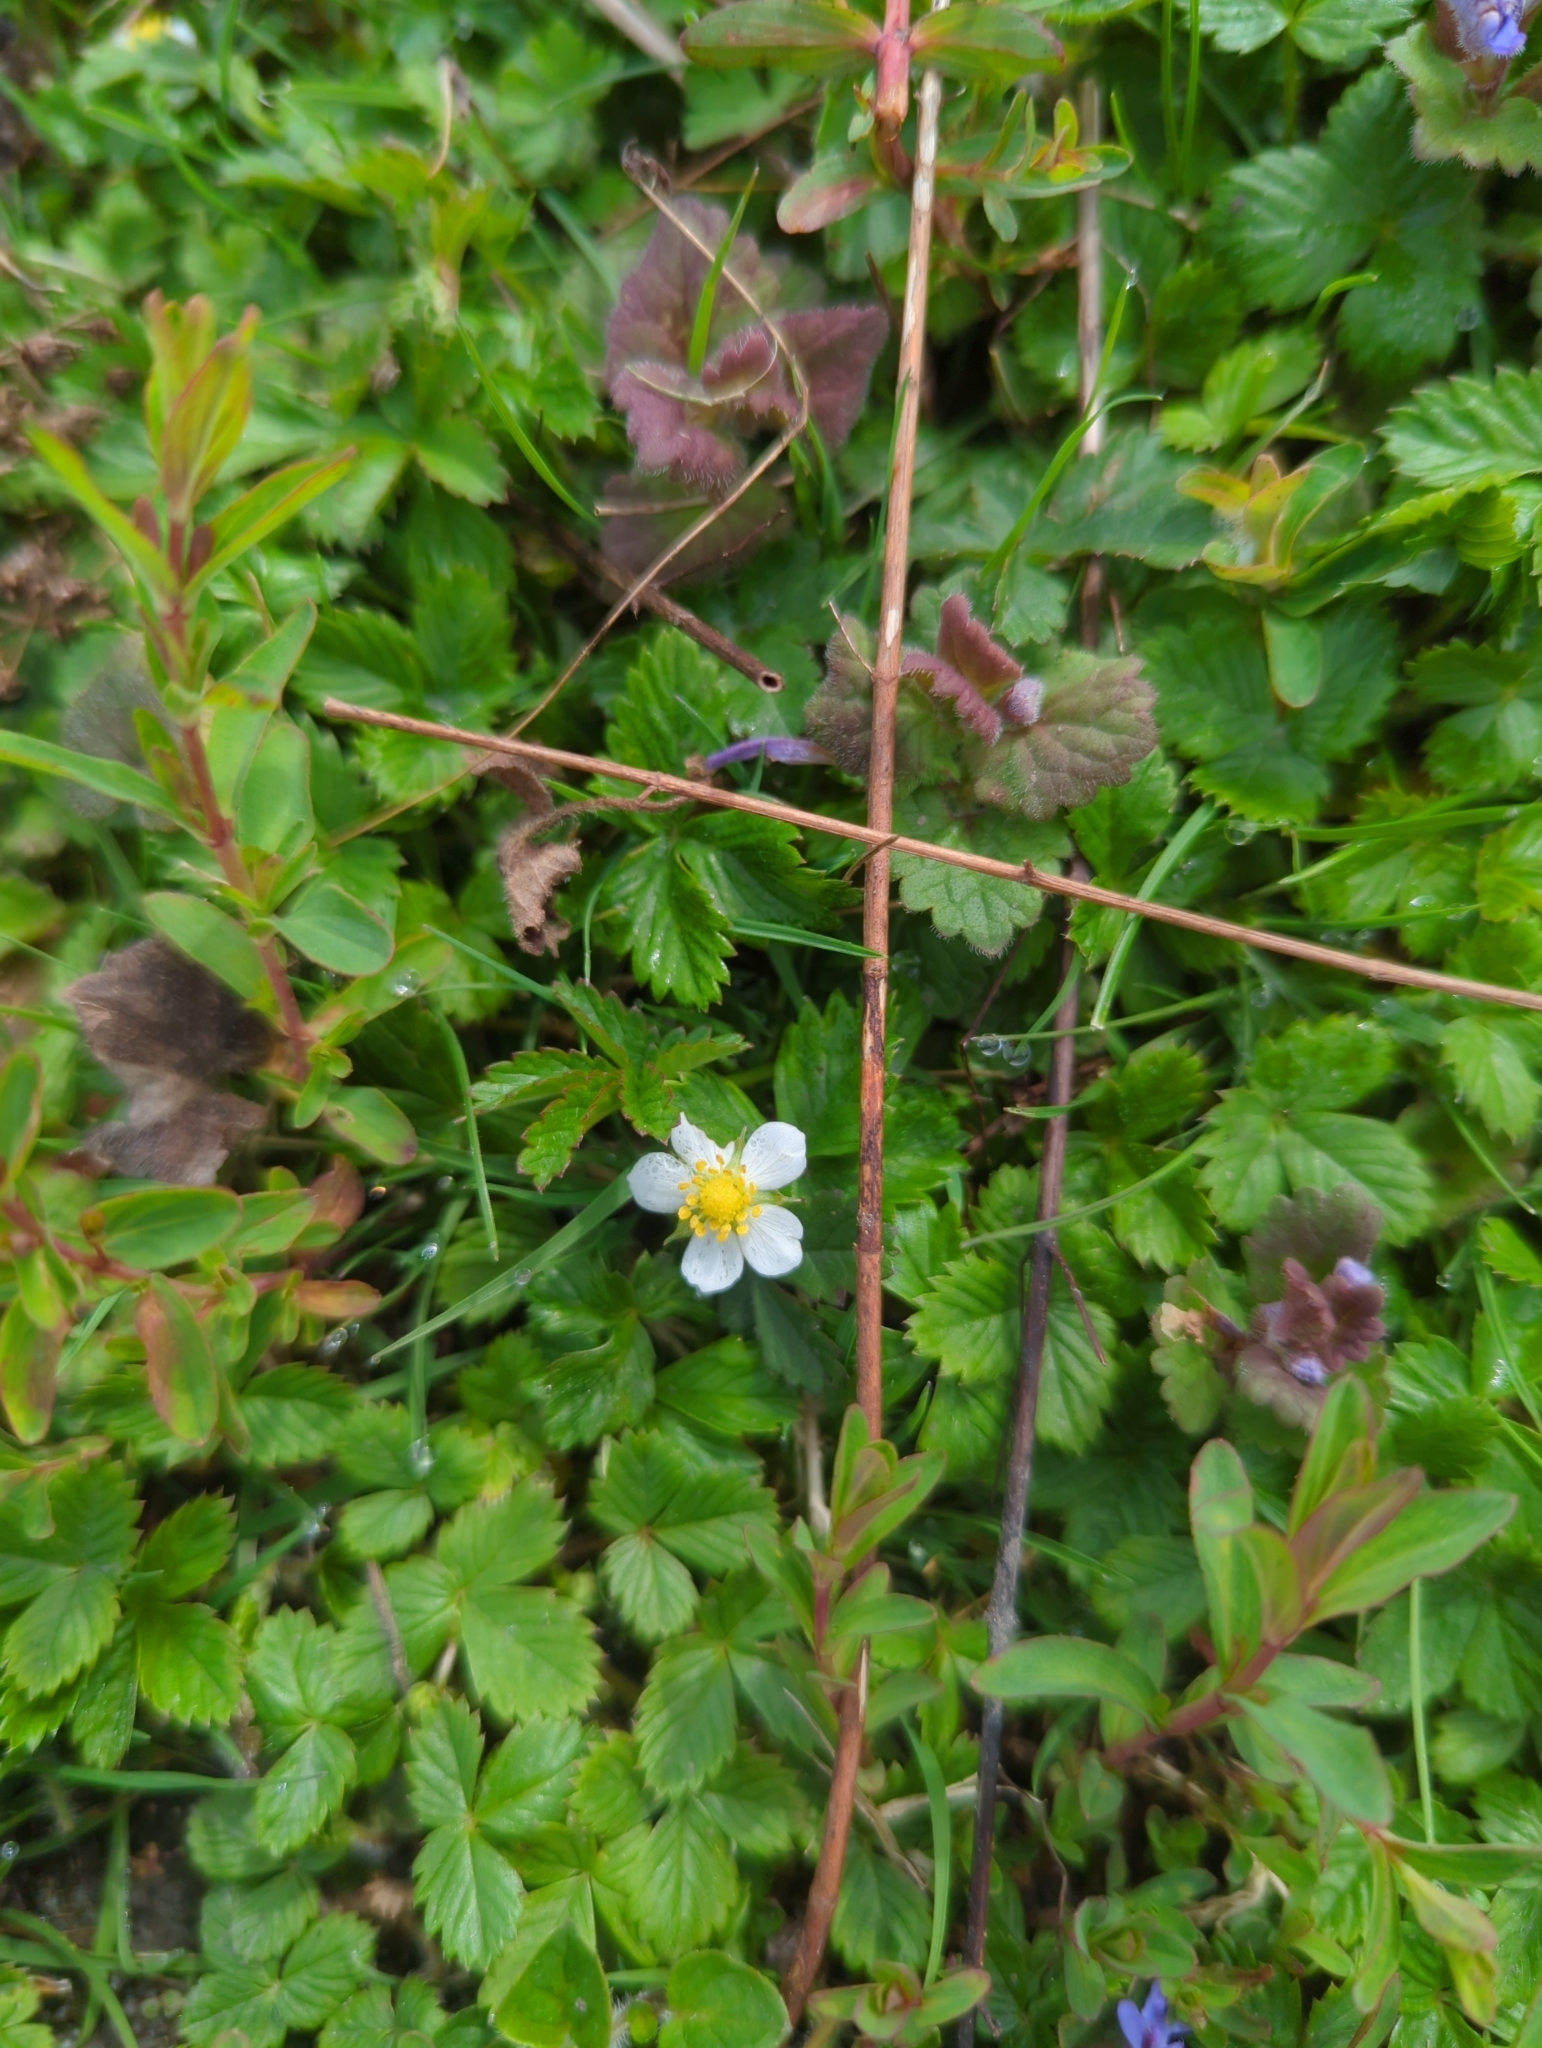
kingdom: Plantae
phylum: Tracheophyta
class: Magnoliopsida
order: Rosales
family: Rosaceae
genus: Fragaria
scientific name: Fragaria vesca
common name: Wild strawberry
